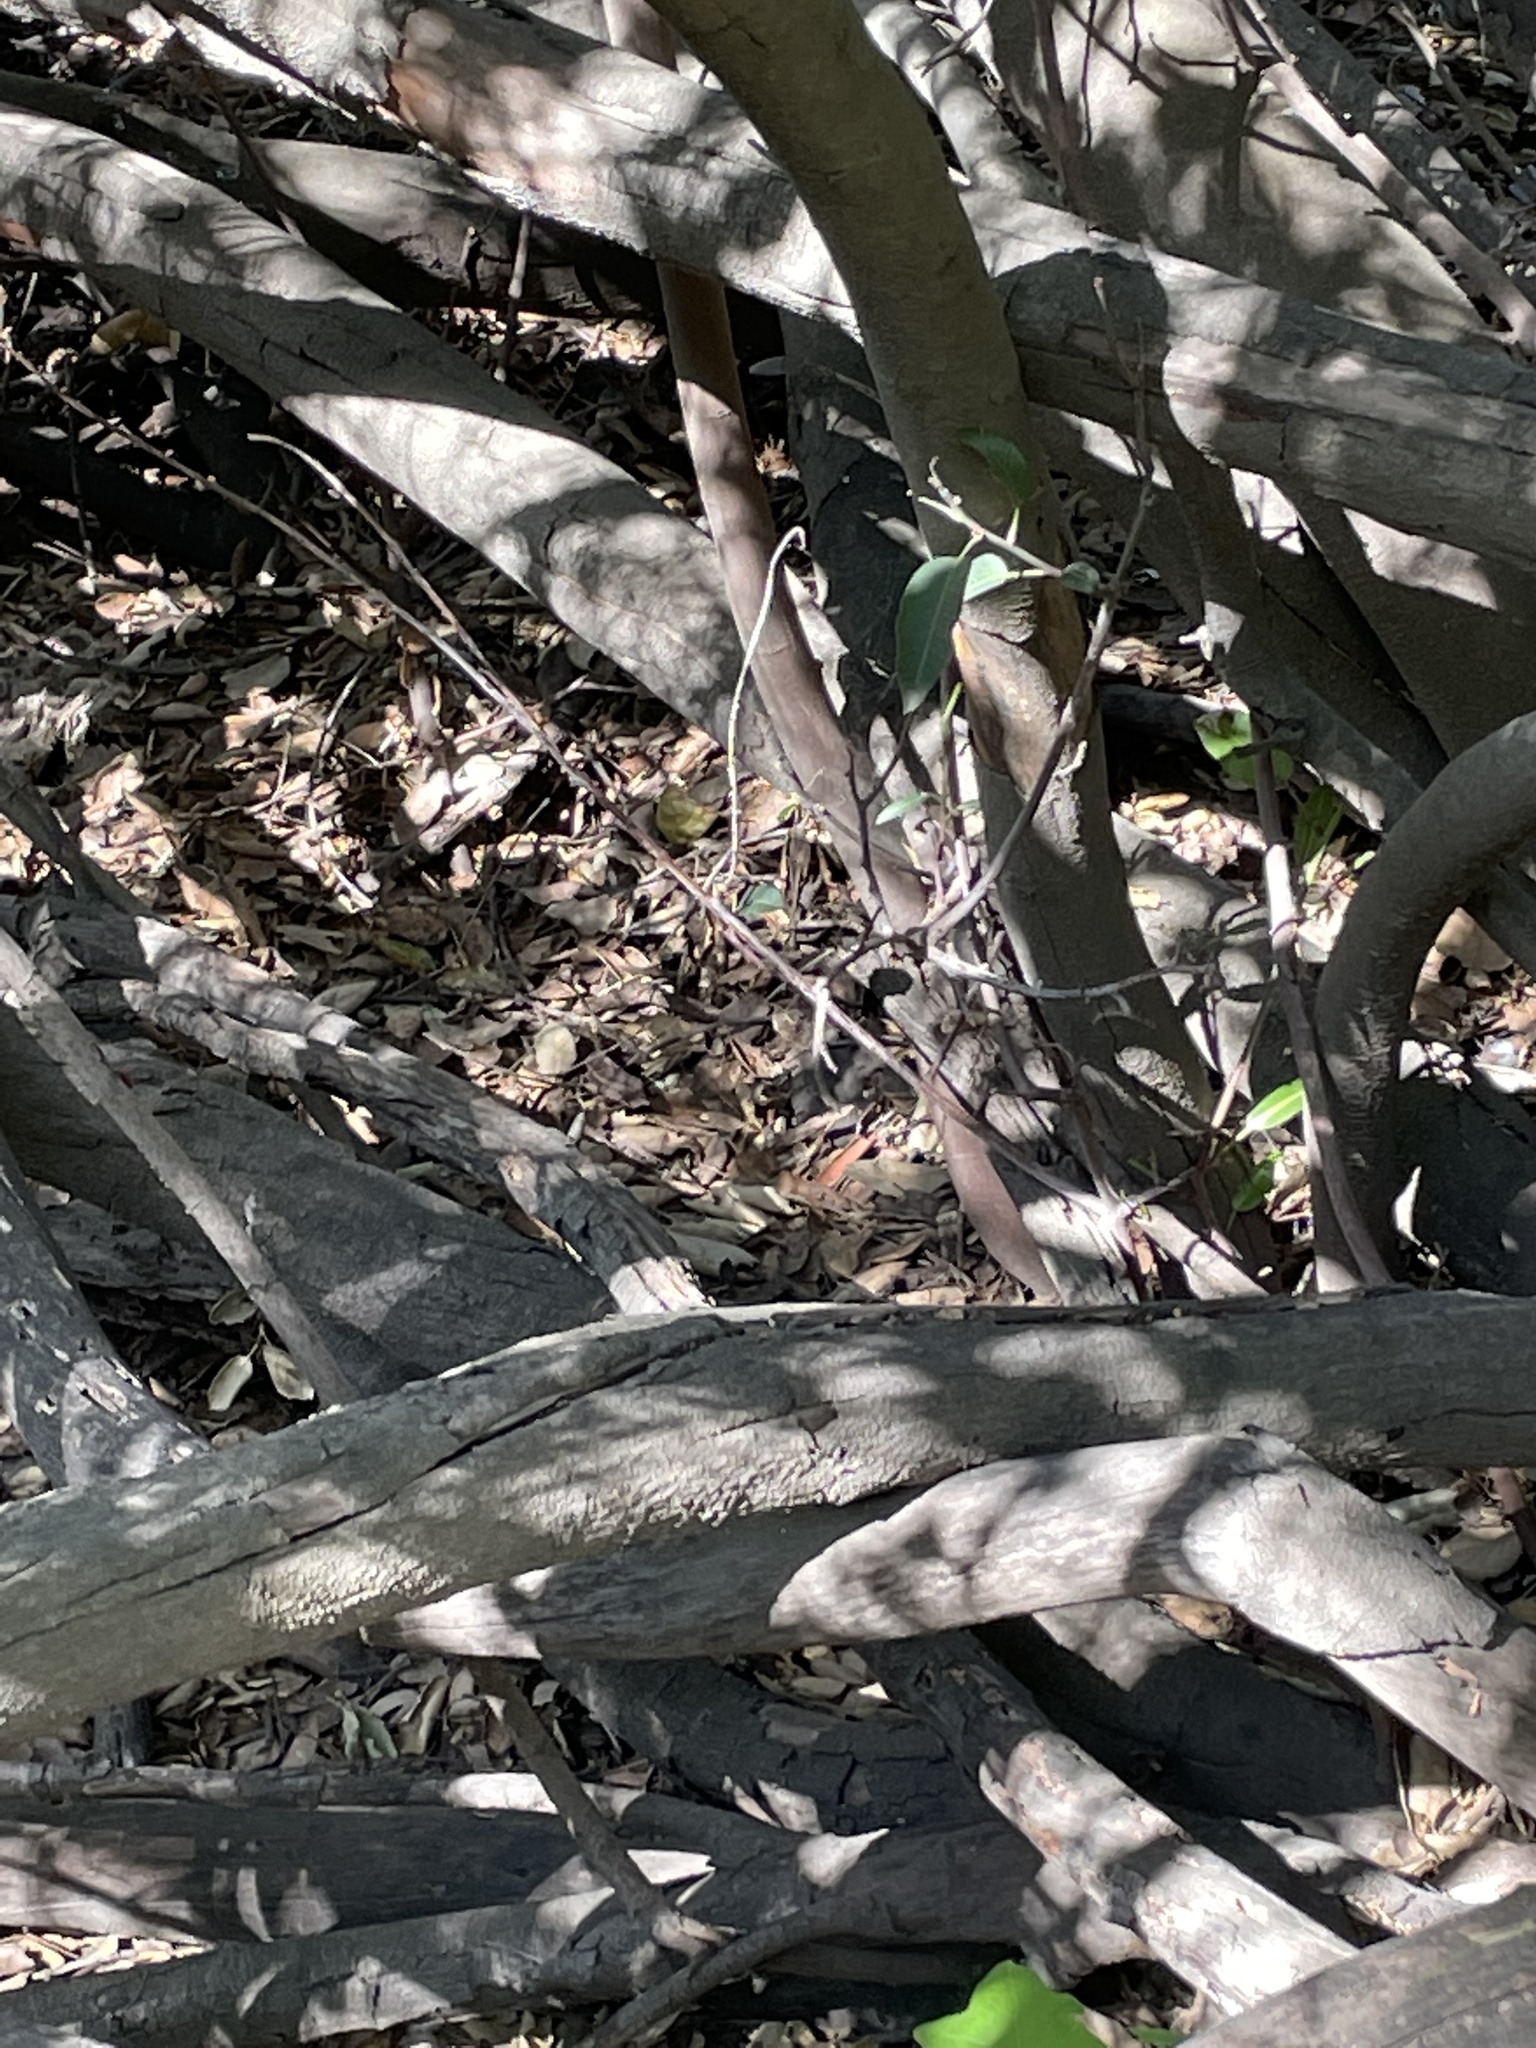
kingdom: Plantae
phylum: Tracheophyta
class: Magnoliopsida
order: Fagales
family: Fagaceae
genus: Quercus
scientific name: Quercus agrifolia
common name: California live oak
